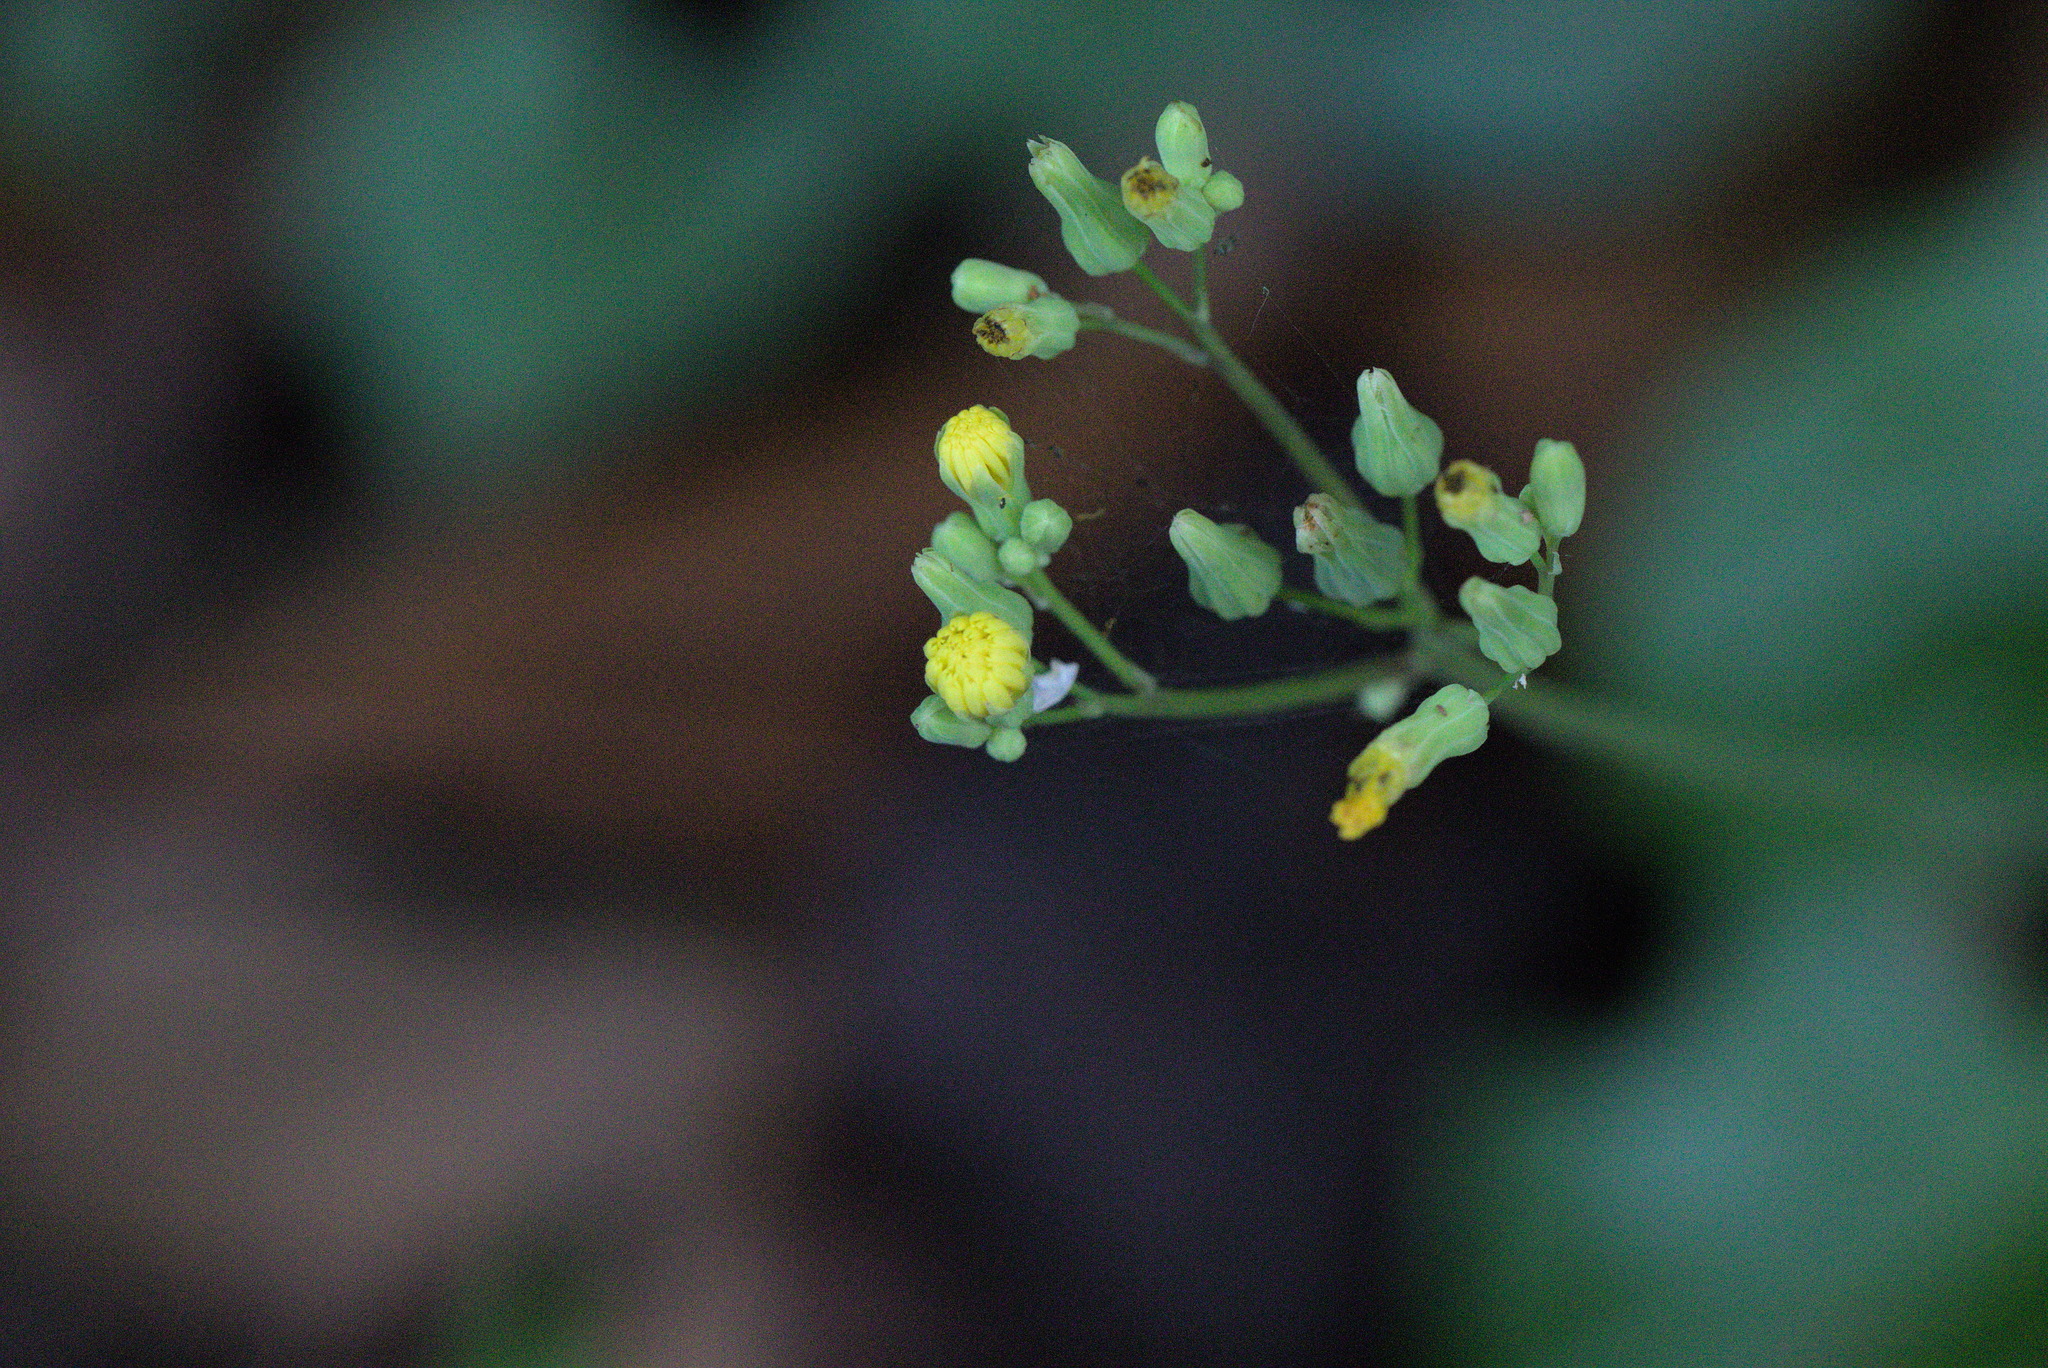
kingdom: Plantae
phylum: Tracheophyta
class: Magnoliopsida
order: Asterales
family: Asteraceae
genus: Youngia
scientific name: Youngia japonica
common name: Oriental false hawksbeard
